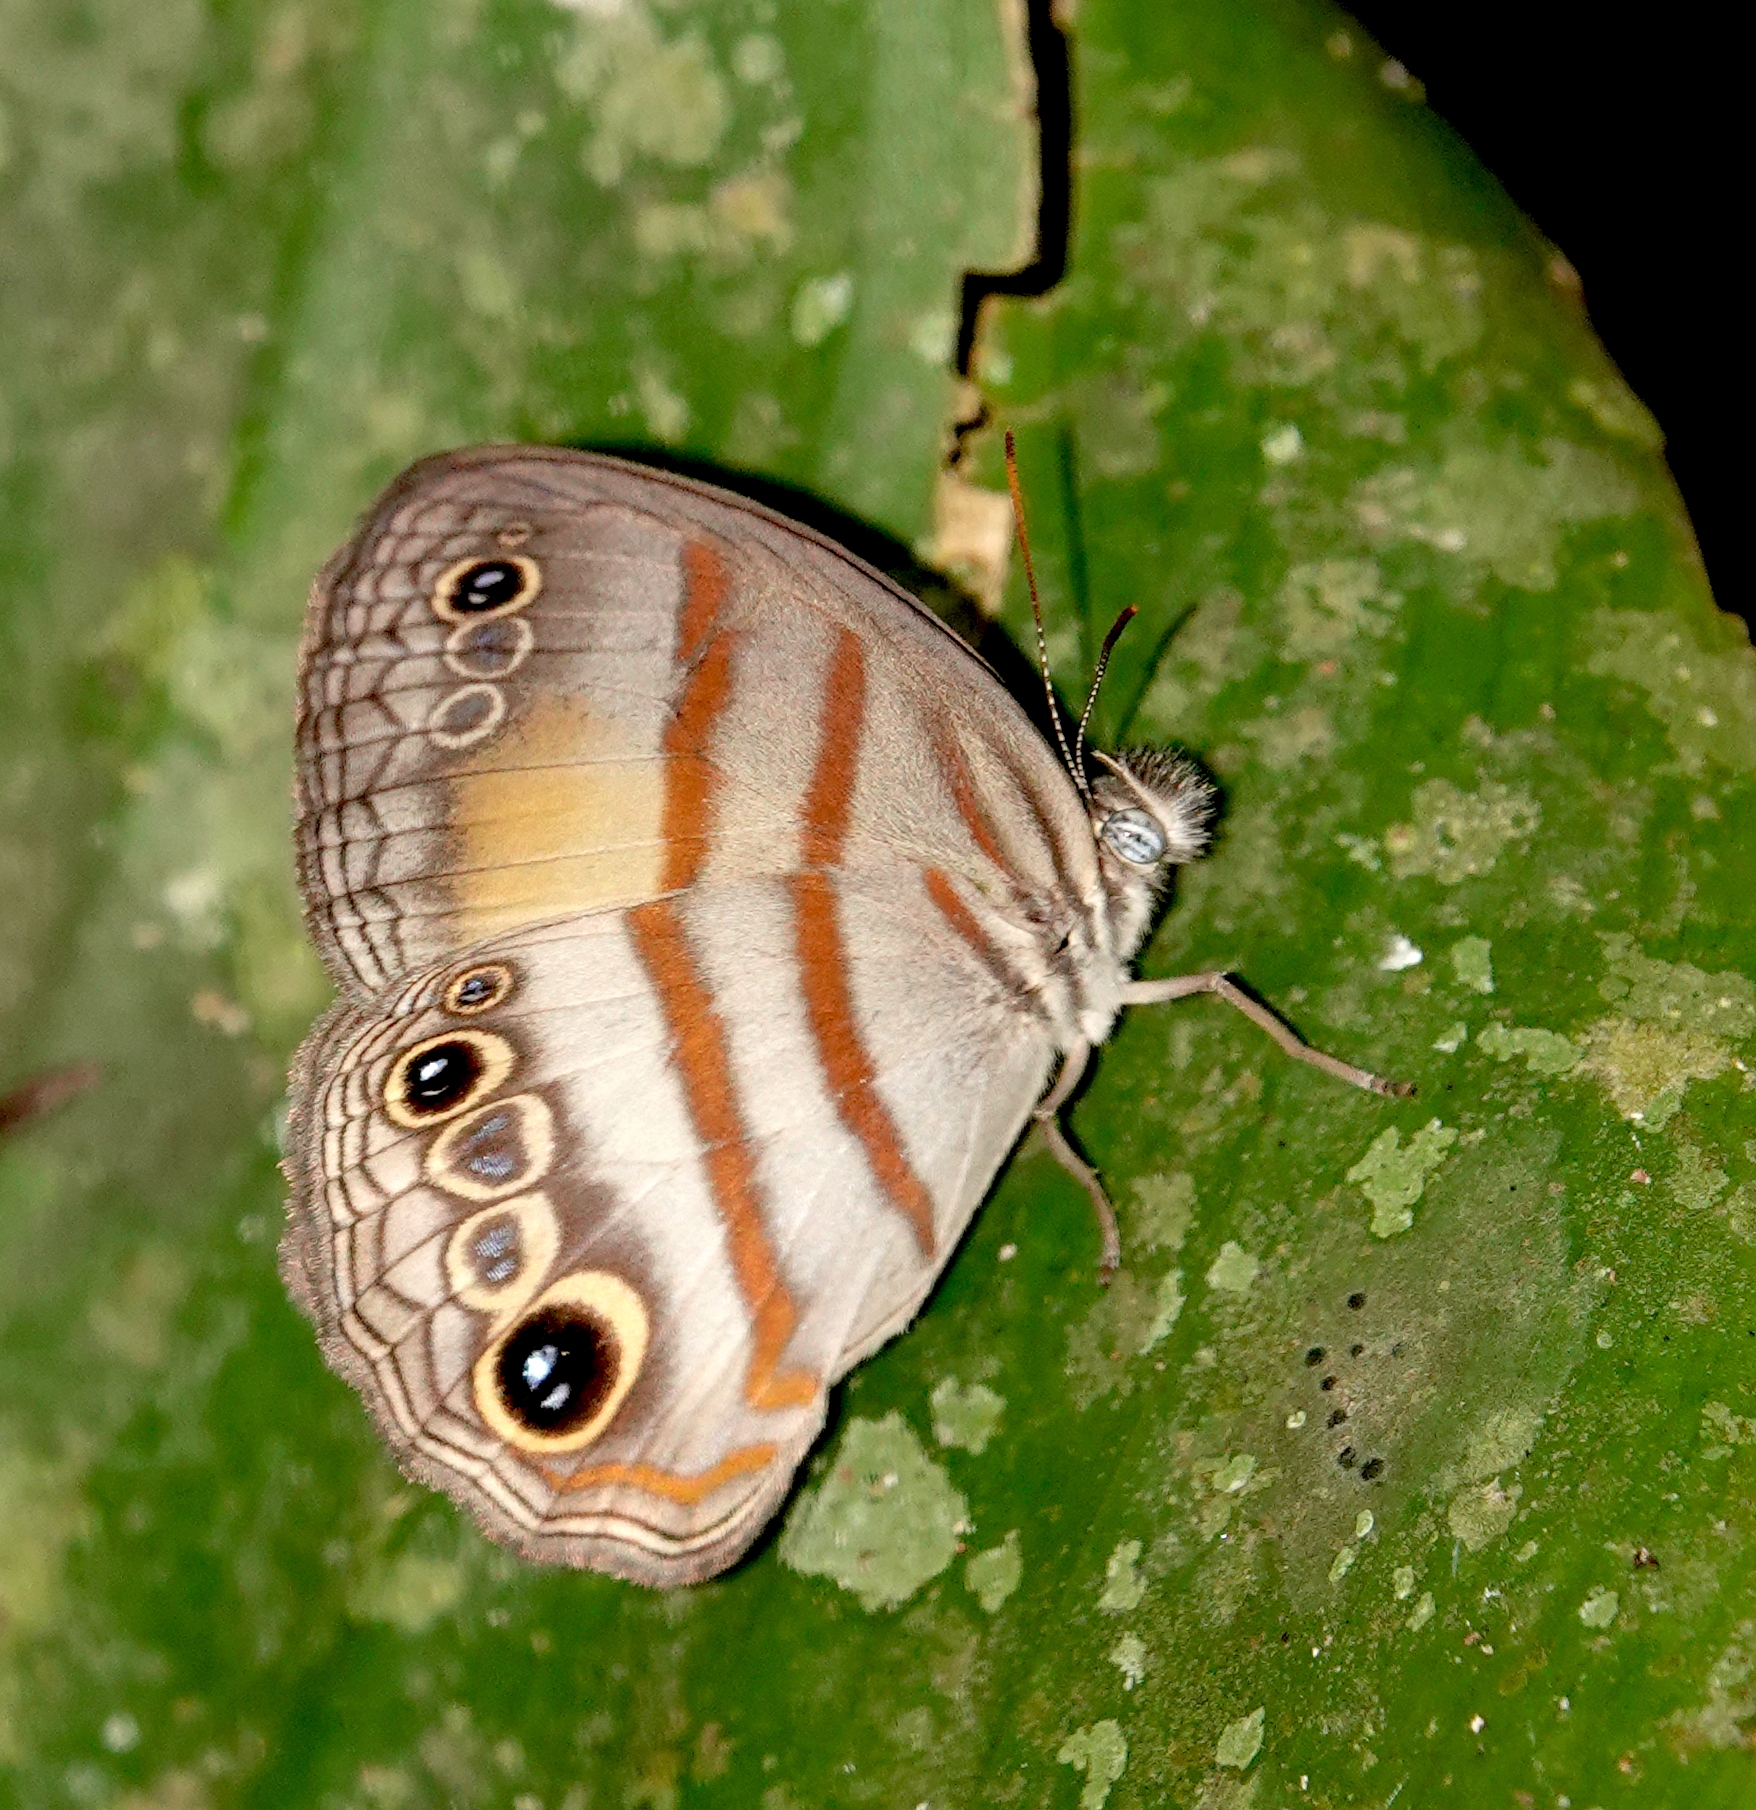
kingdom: Animalia
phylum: Arthropoda
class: Insecta
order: Lepidoptera
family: Nymphalidae
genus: Modica
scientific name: Modica
